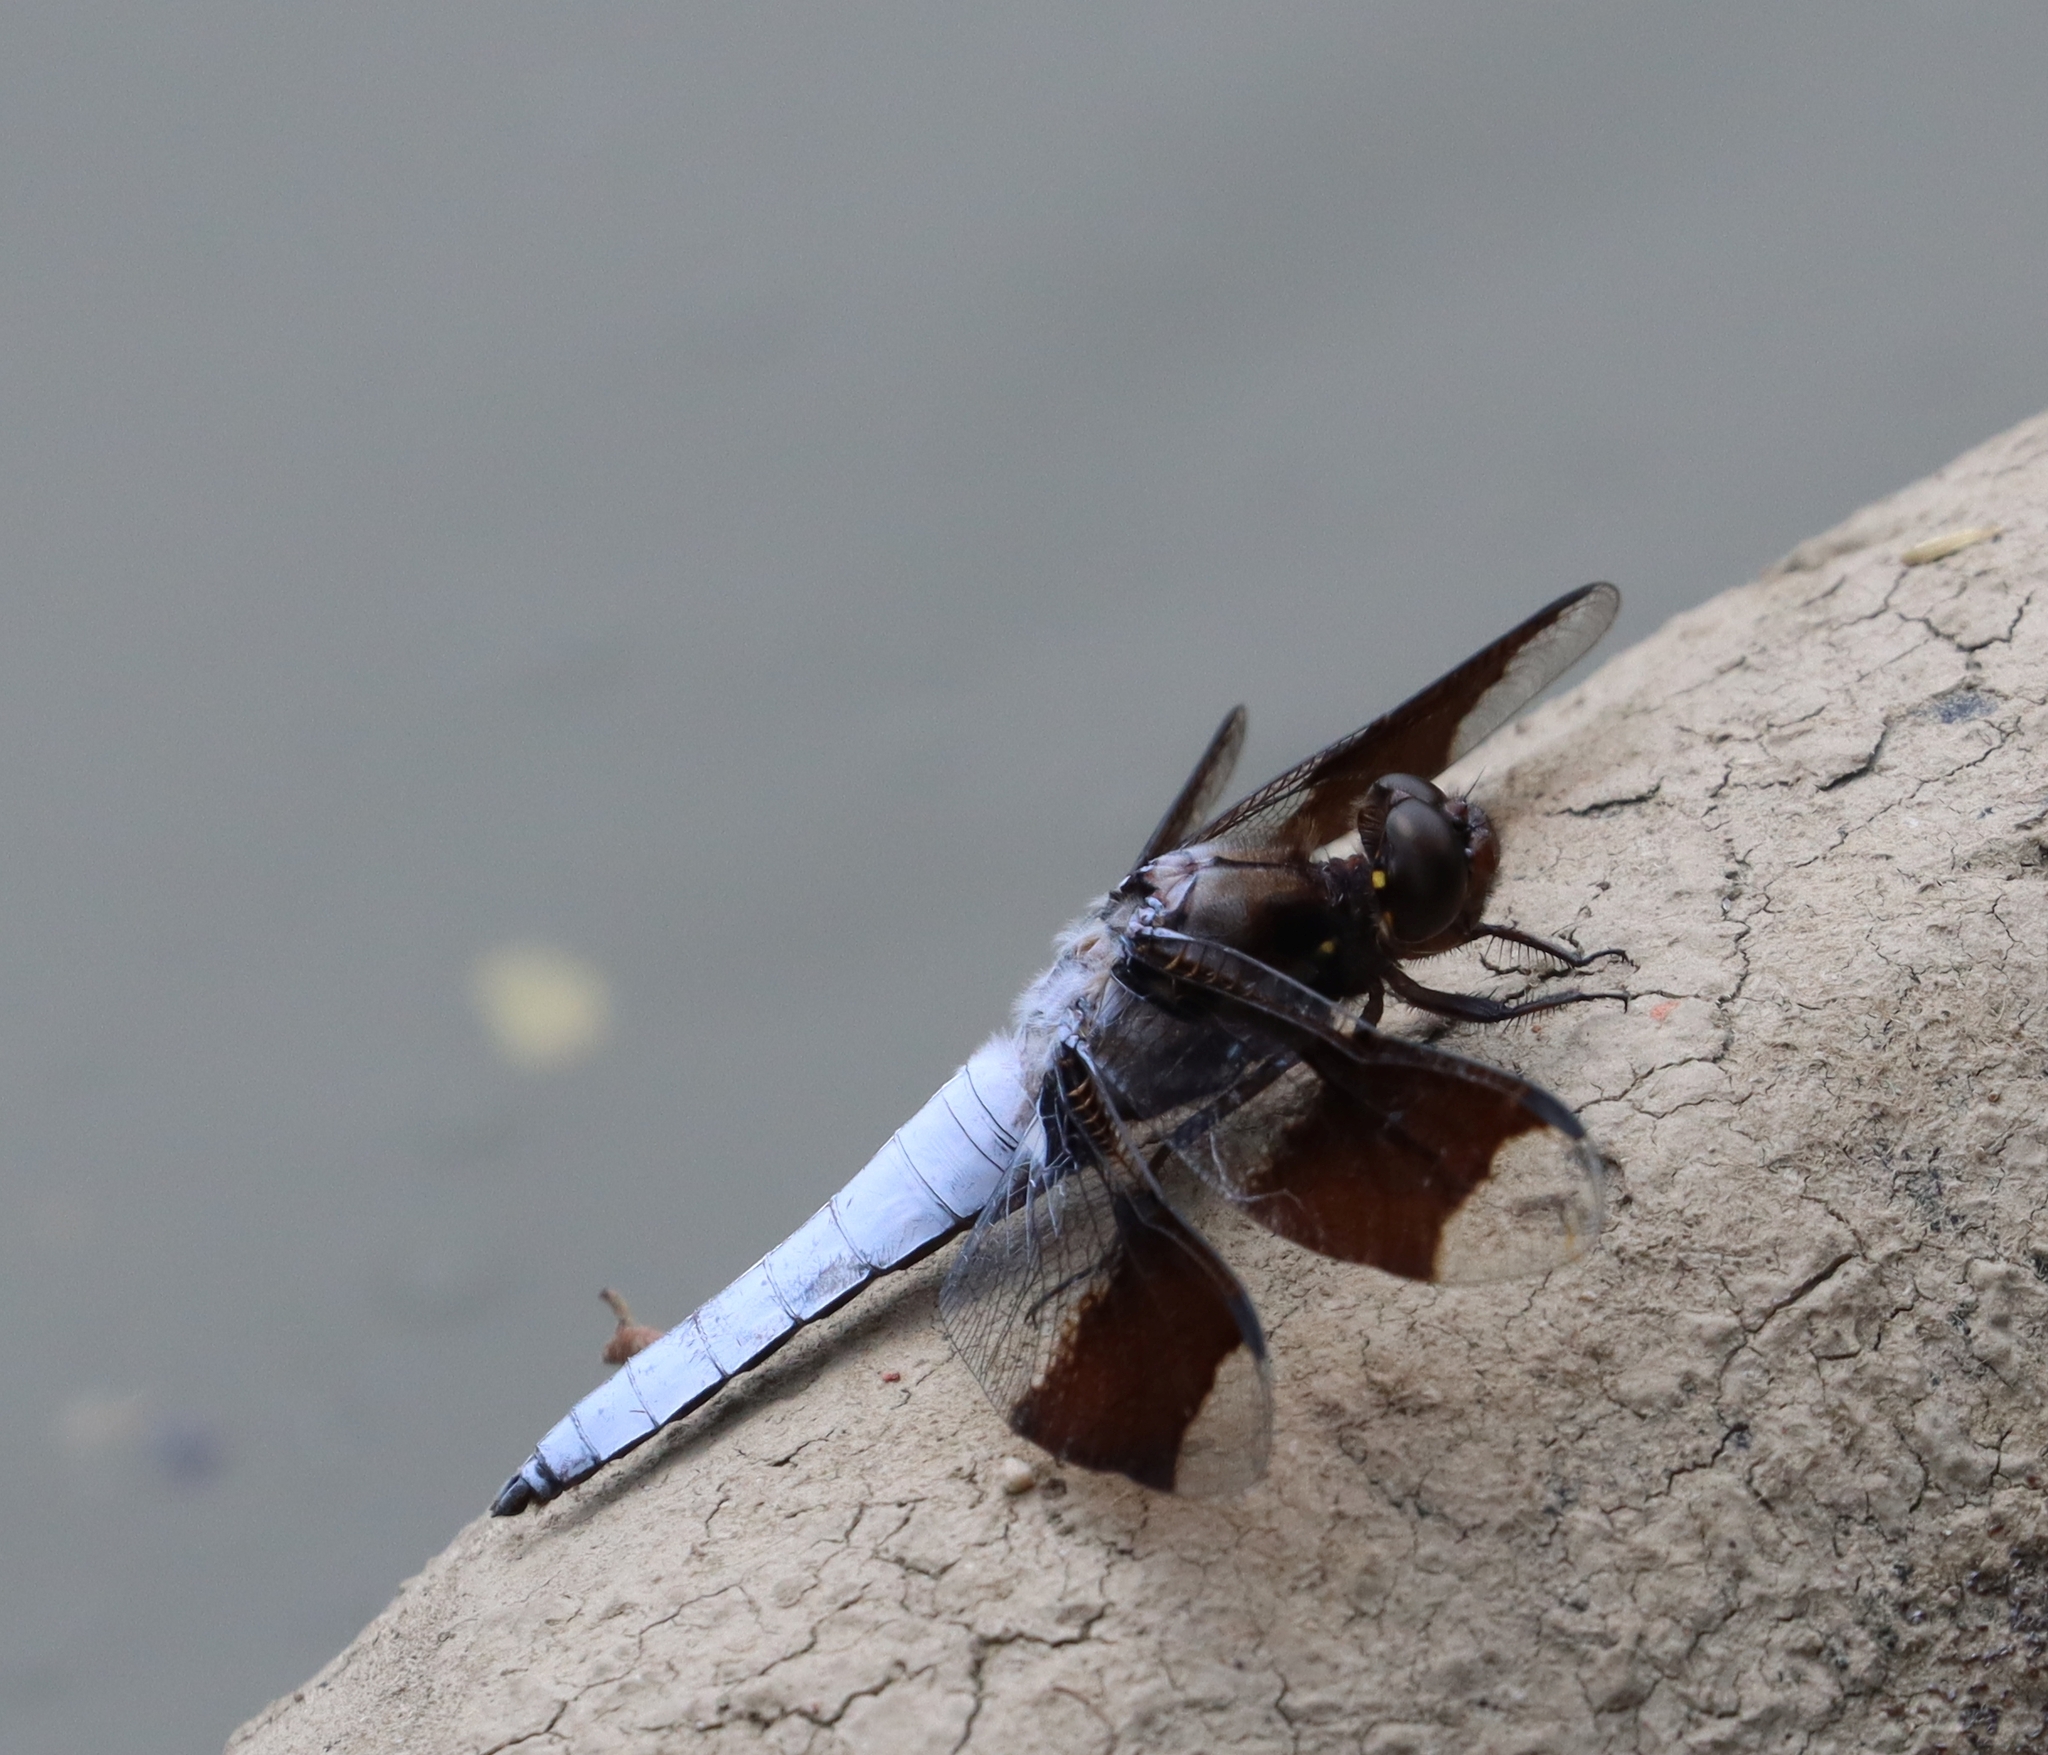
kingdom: Animalia
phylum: Arthropoda
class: Insecta
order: Odonata
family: Libellulidae
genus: Plathemis
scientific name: Plathemis lydia
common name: Common whitetail
